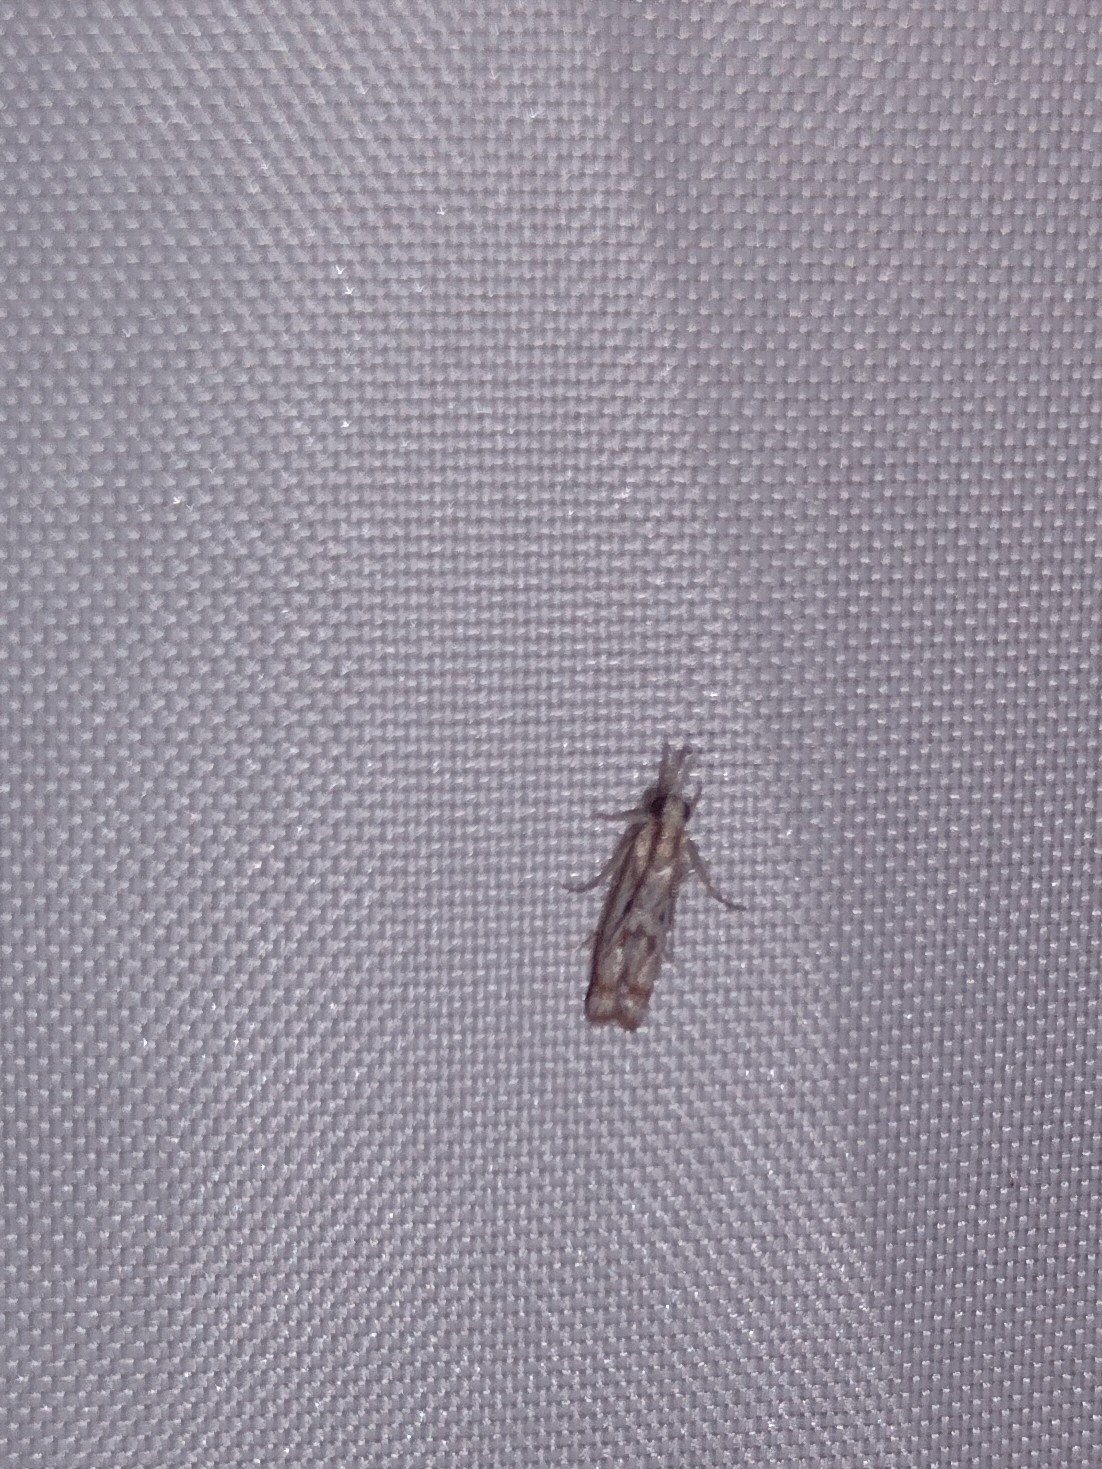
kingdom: Animalia
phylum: Arthropoda
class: Insecta
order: Lepidoptera
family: Crambidae
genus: Microcrambus
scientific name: Microcrambus elegans
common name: Elegant grass-veneer
